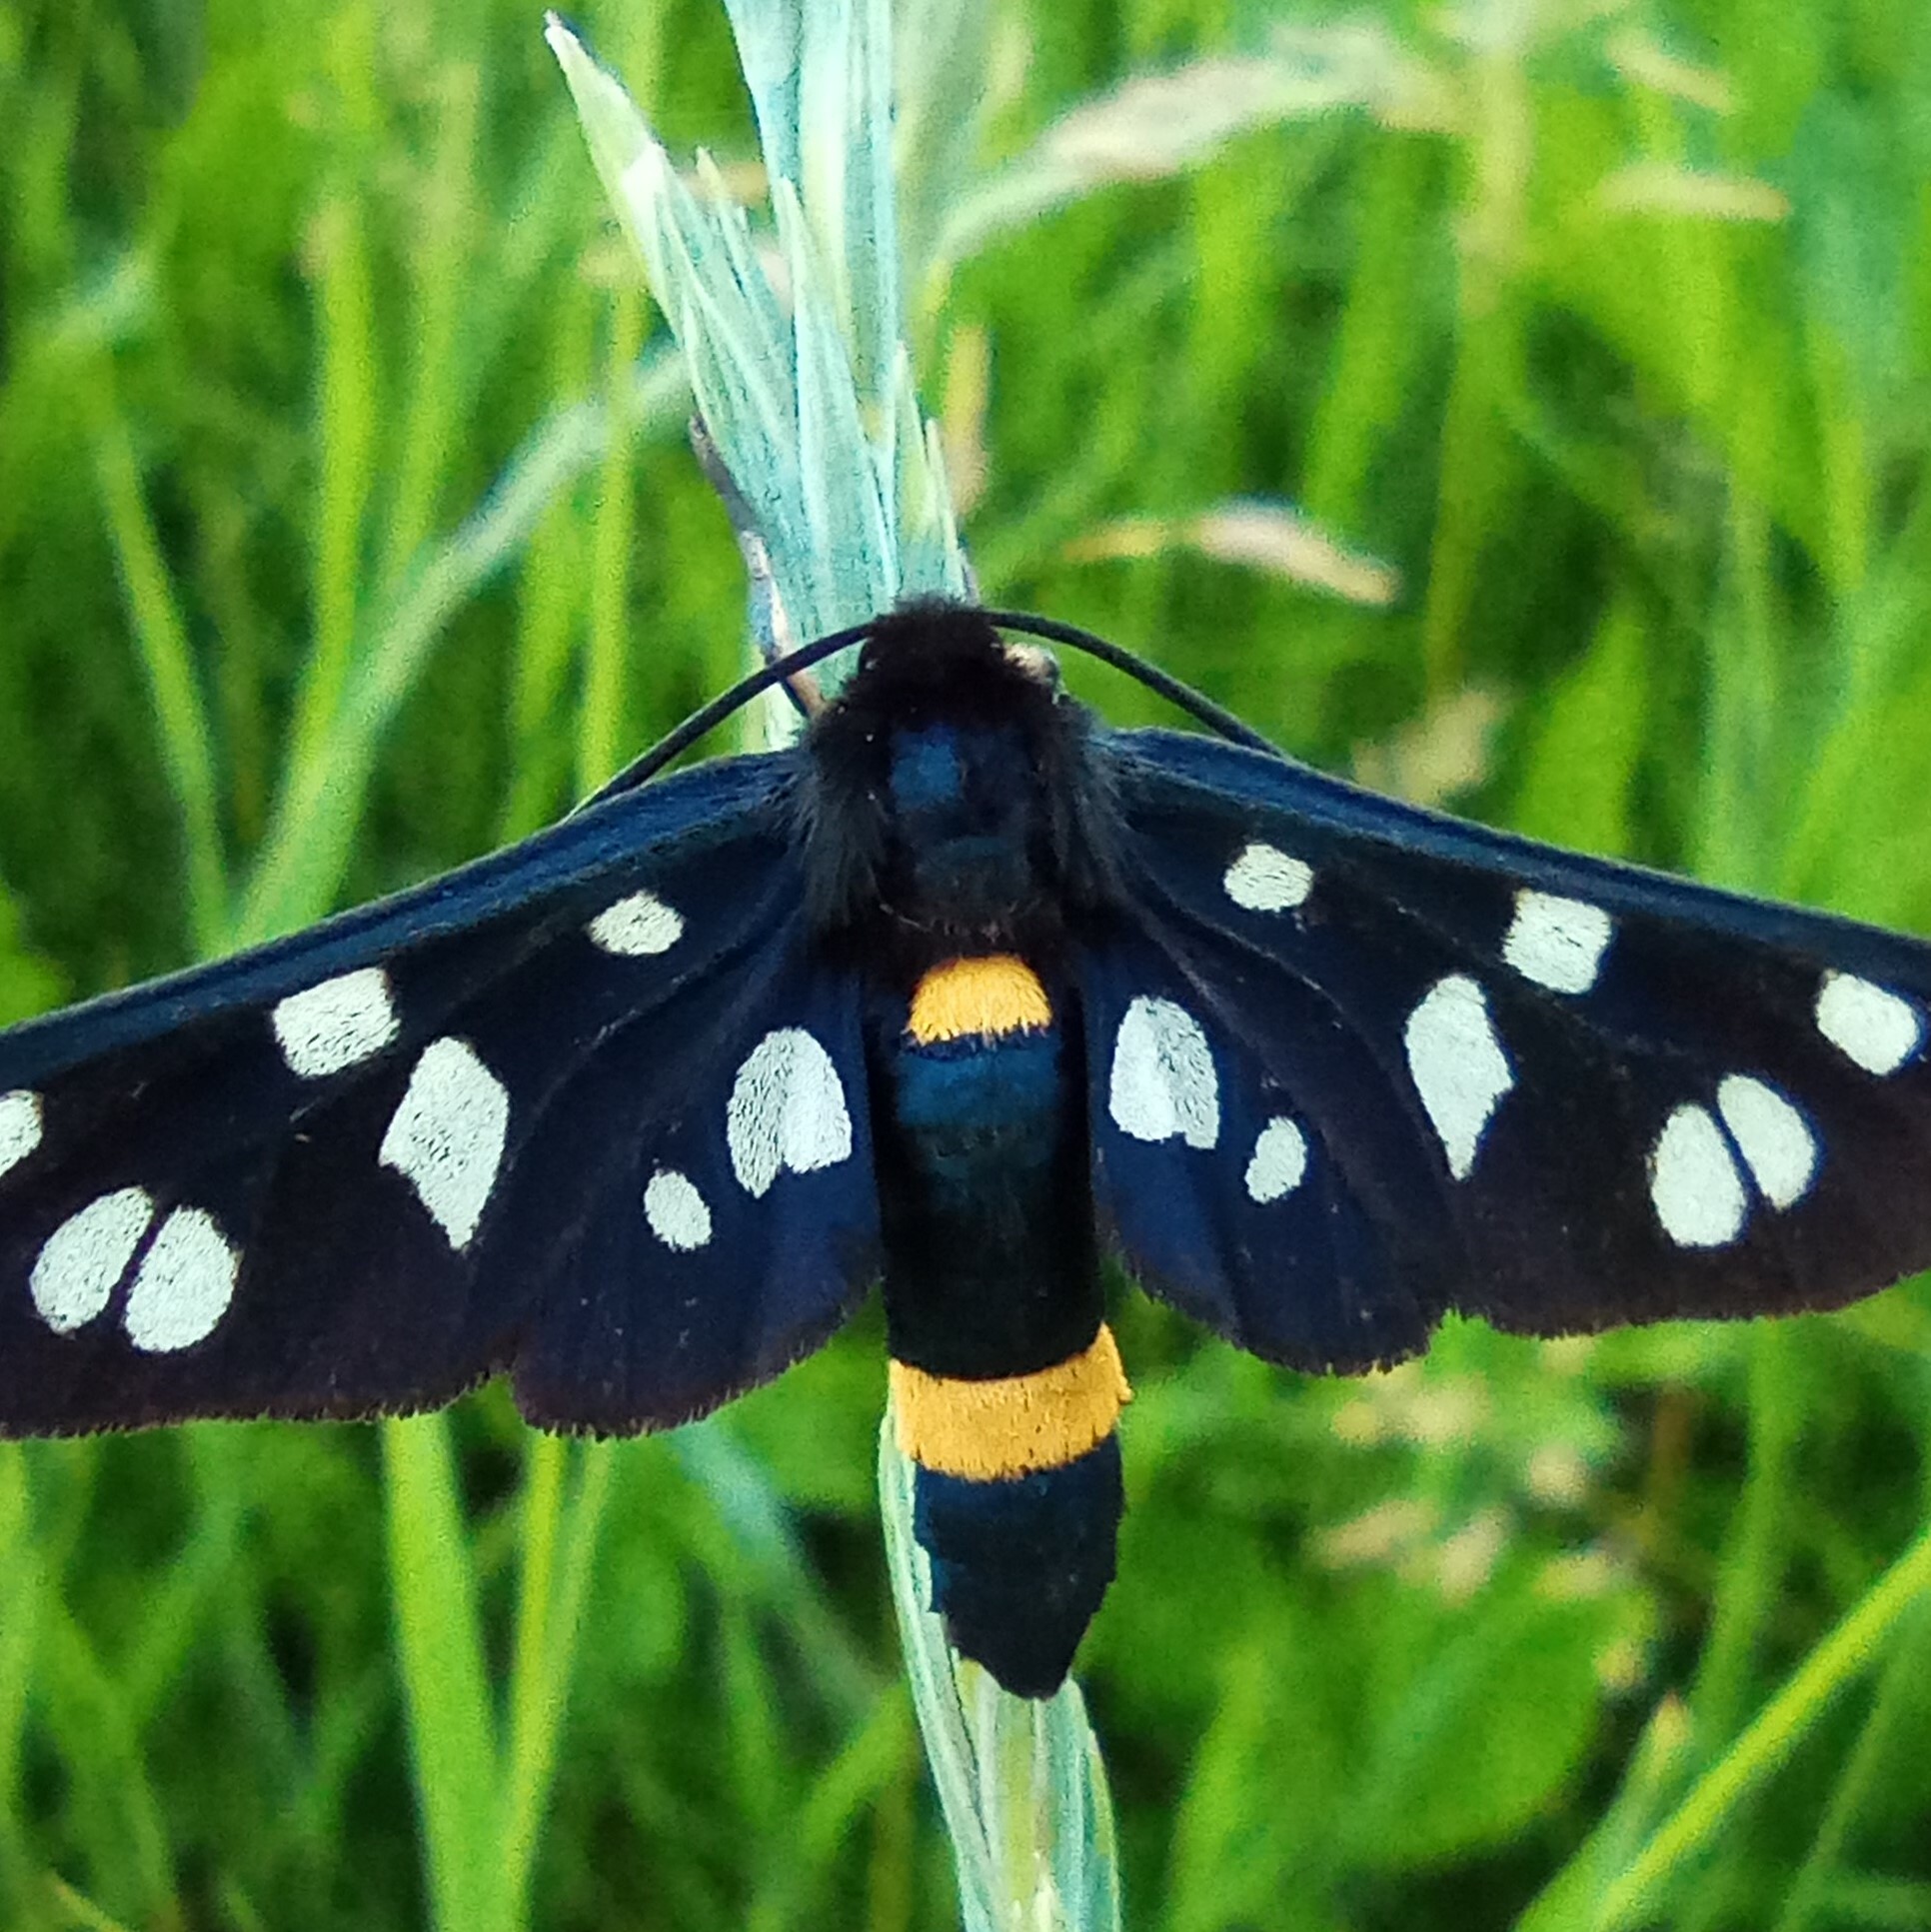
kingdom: Animalia
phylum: Arthropoda
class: Insecta
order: Lepidoptera
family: Erebidae
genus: Amata
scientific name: Amata nigricornis
